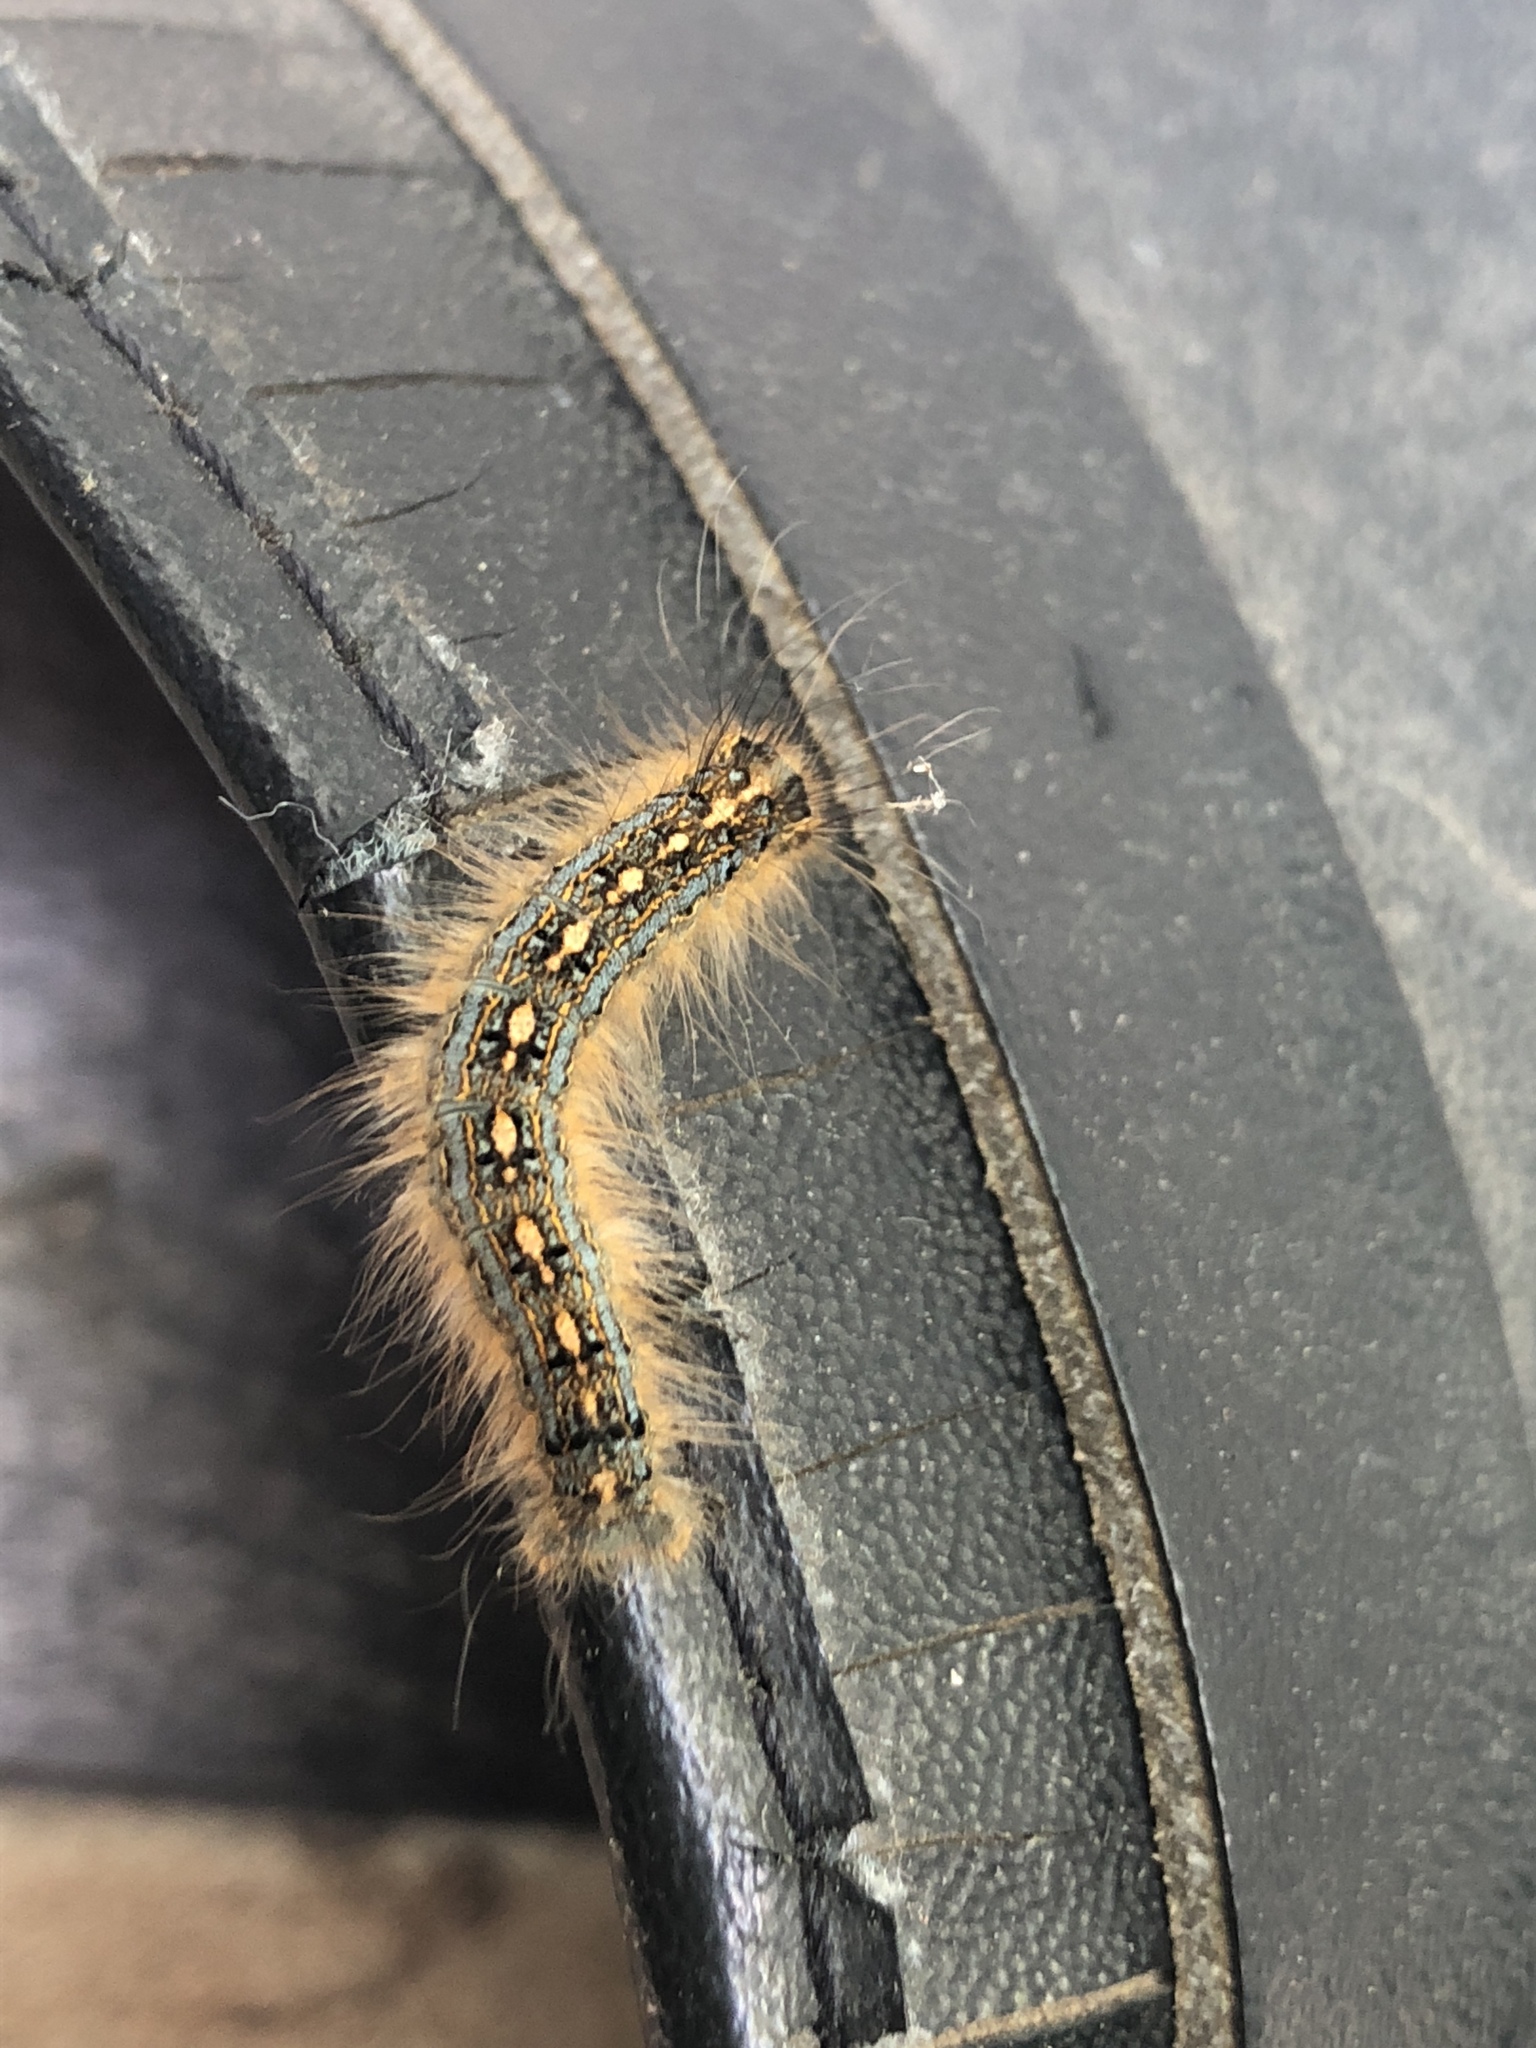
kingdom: Animalia
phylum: Arthropoda
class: Insecta
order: Lepidoptera
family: Lasiocampidae
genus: Malacosoma
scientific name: Malacosoma disstria
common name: Forest tent caterpillar
